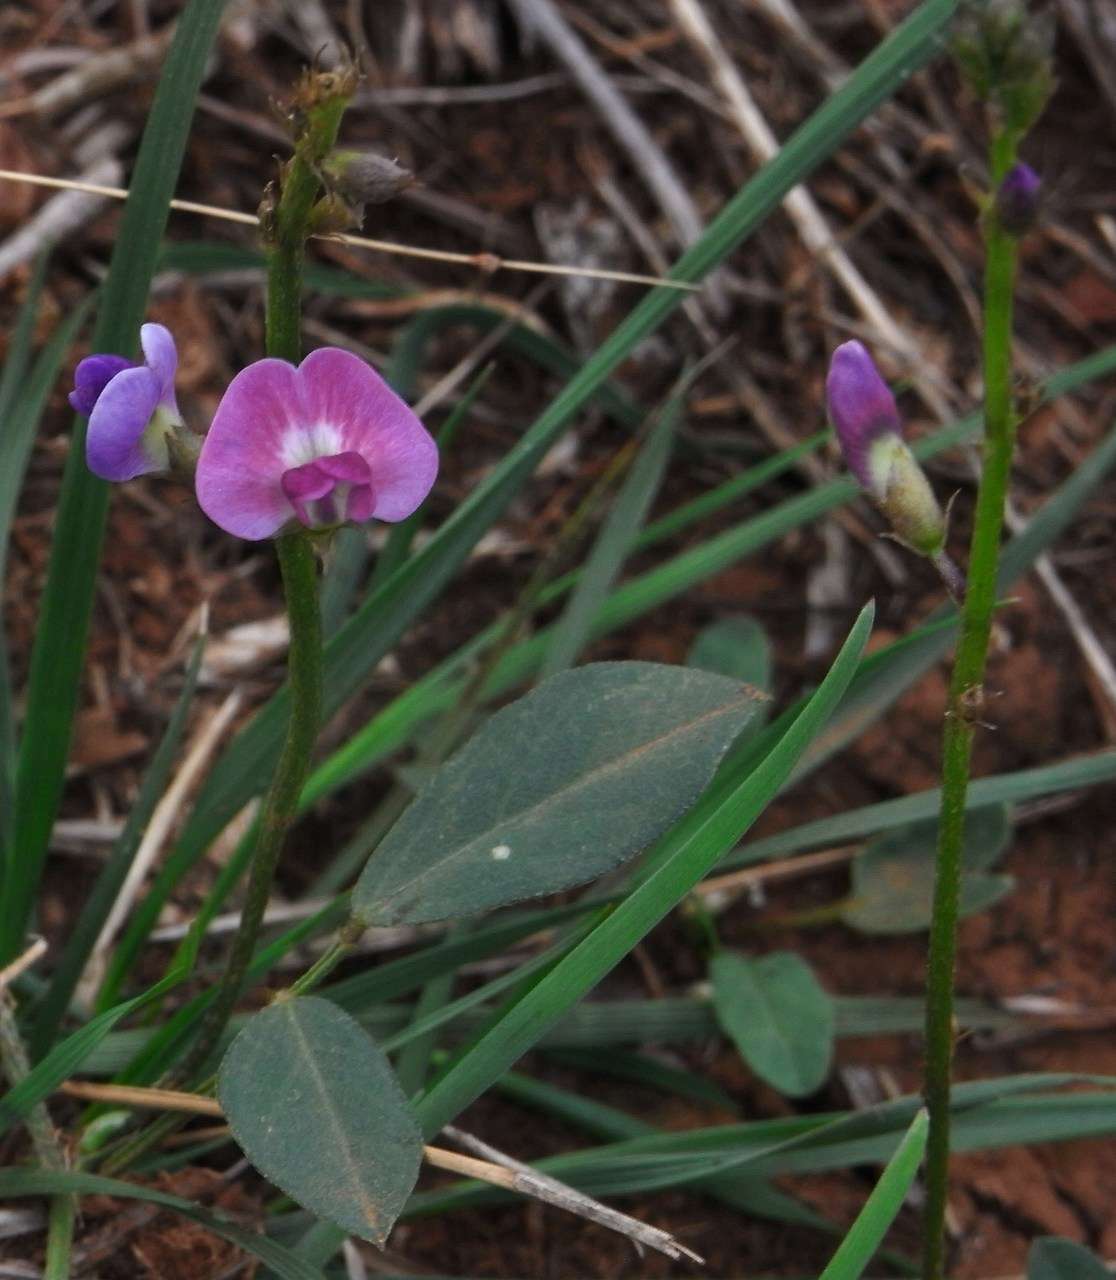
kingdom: Plantae
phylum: Tracheophyta
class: Magnoliopsida
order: Fabales
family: Fabaceae
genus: Glycine
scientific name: Glycine tabacina
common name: Pea glycine
